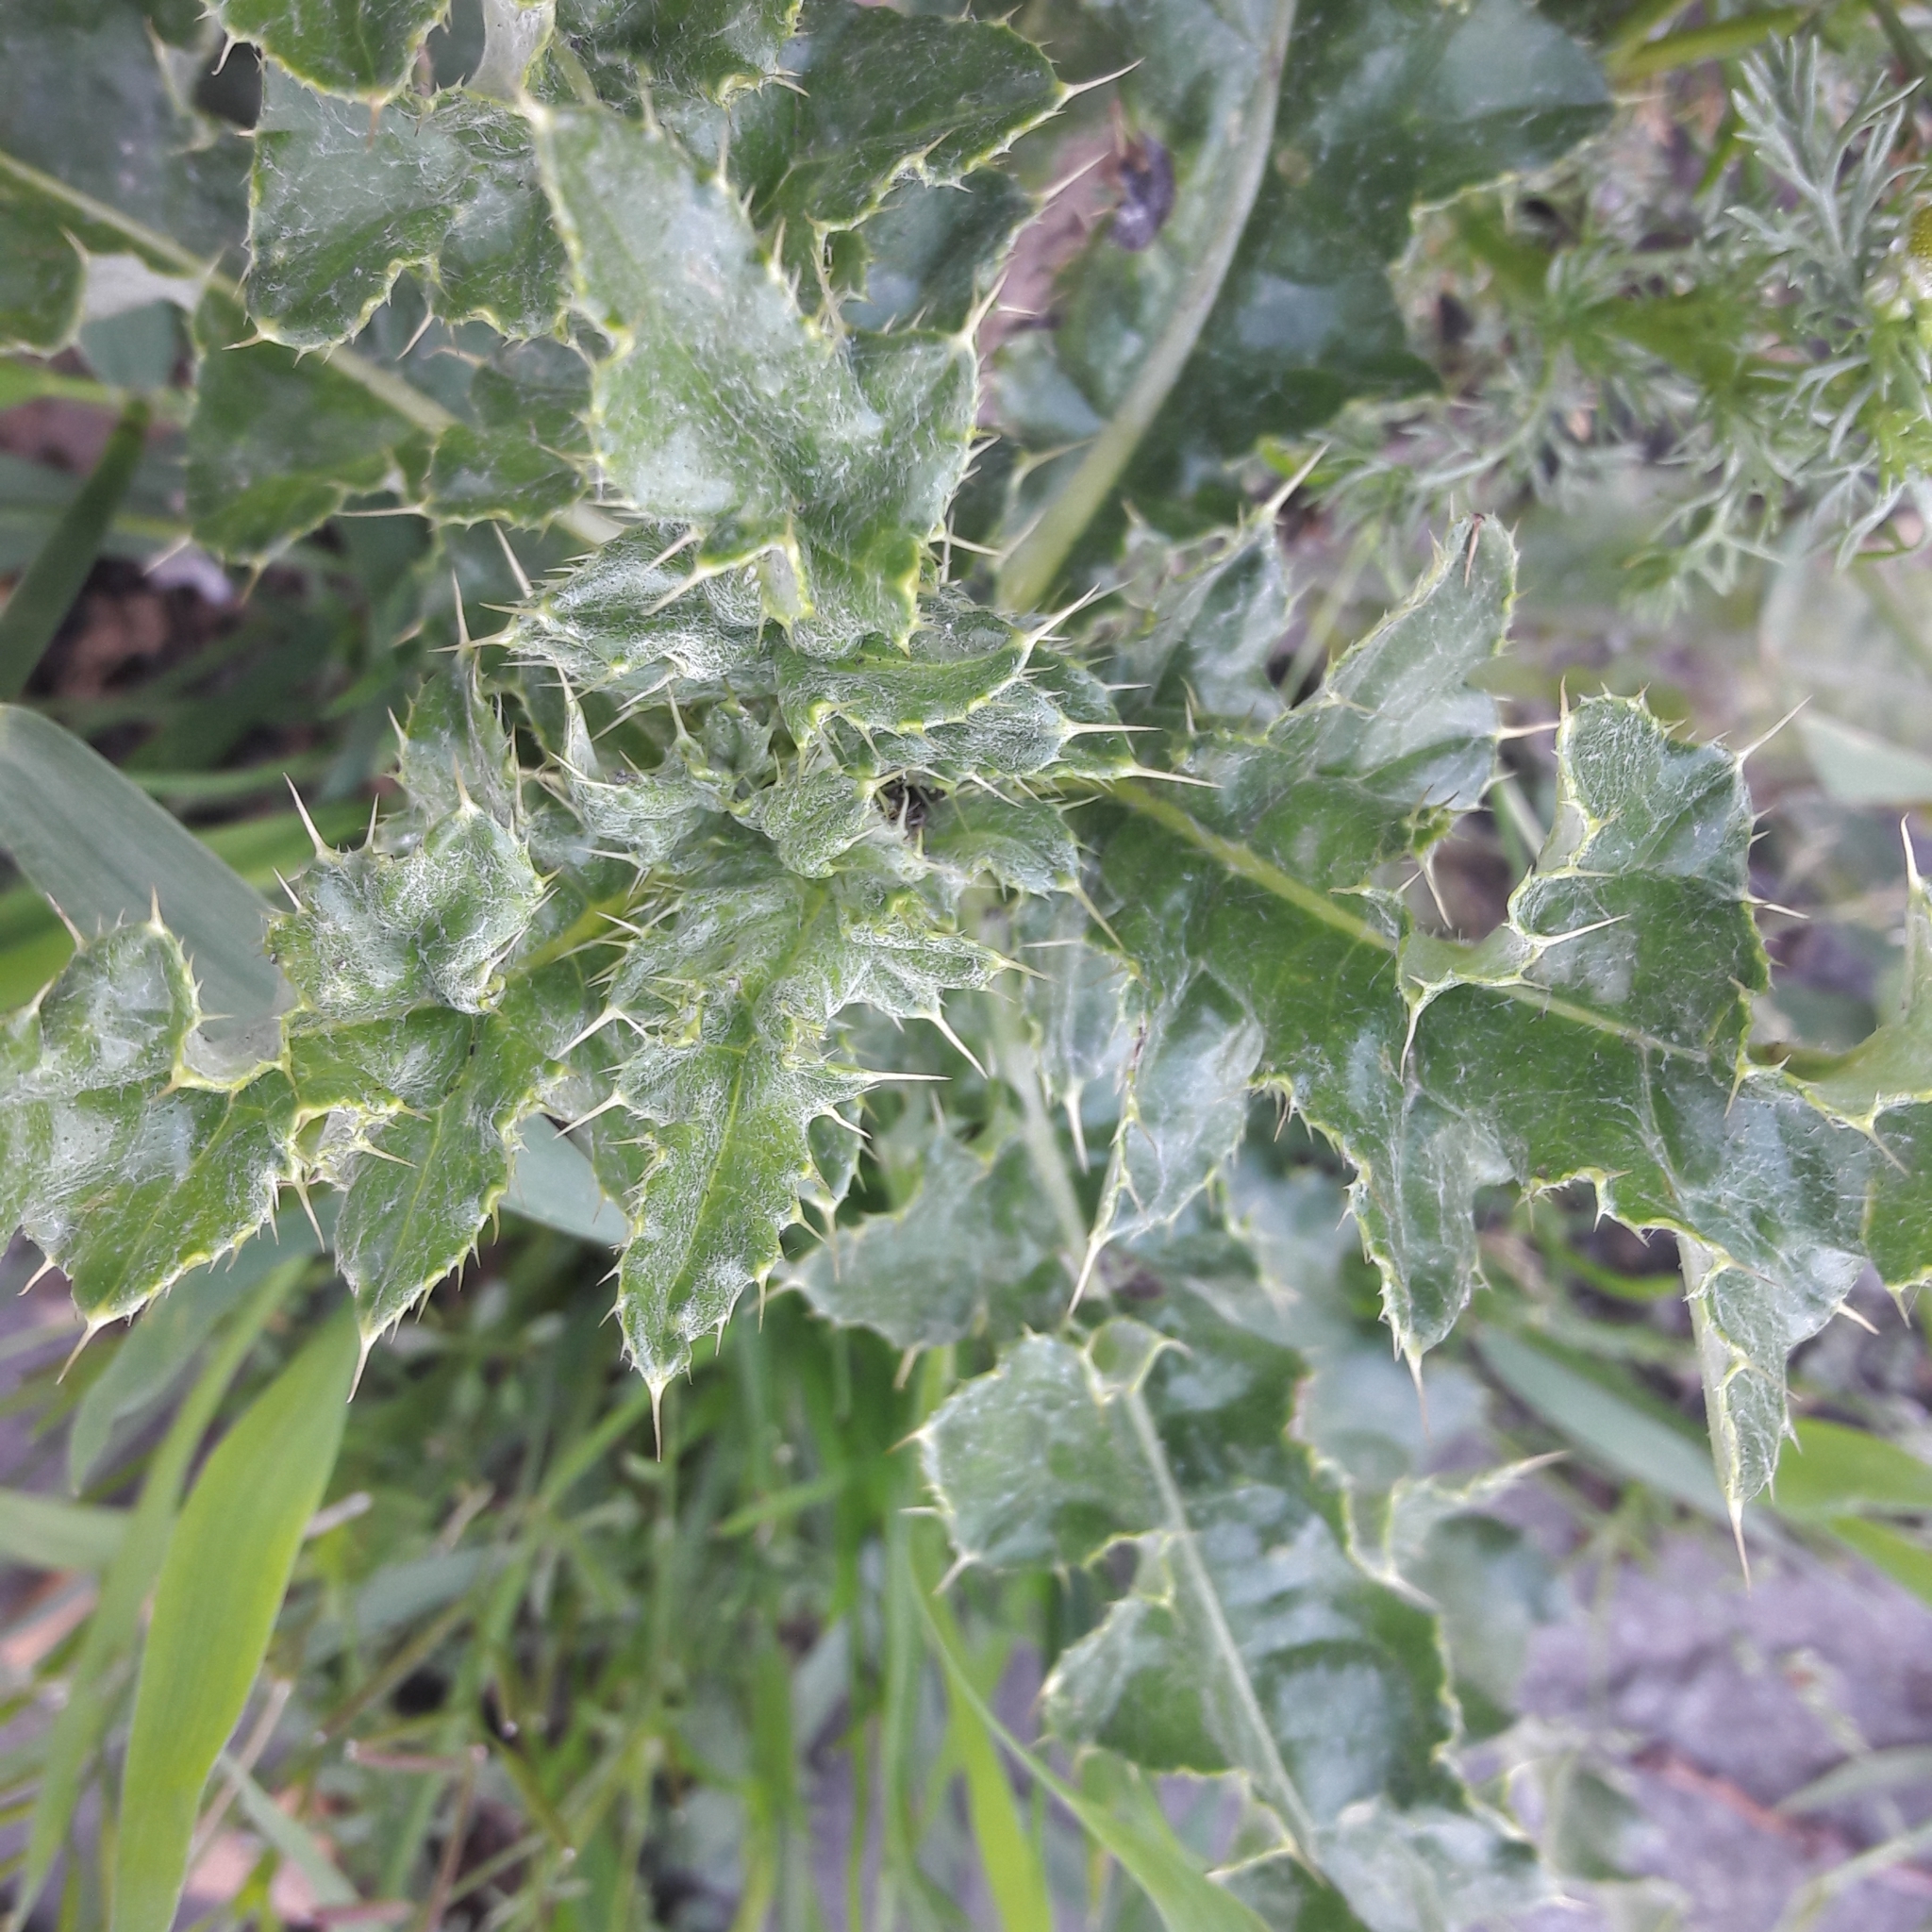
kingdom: Plantae
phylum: Tracheophyta
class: Magnoliopsida
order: Asterales
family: Asteraceae
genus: Cirsium
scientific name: Cirsium arvense
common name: Creeping thistle
